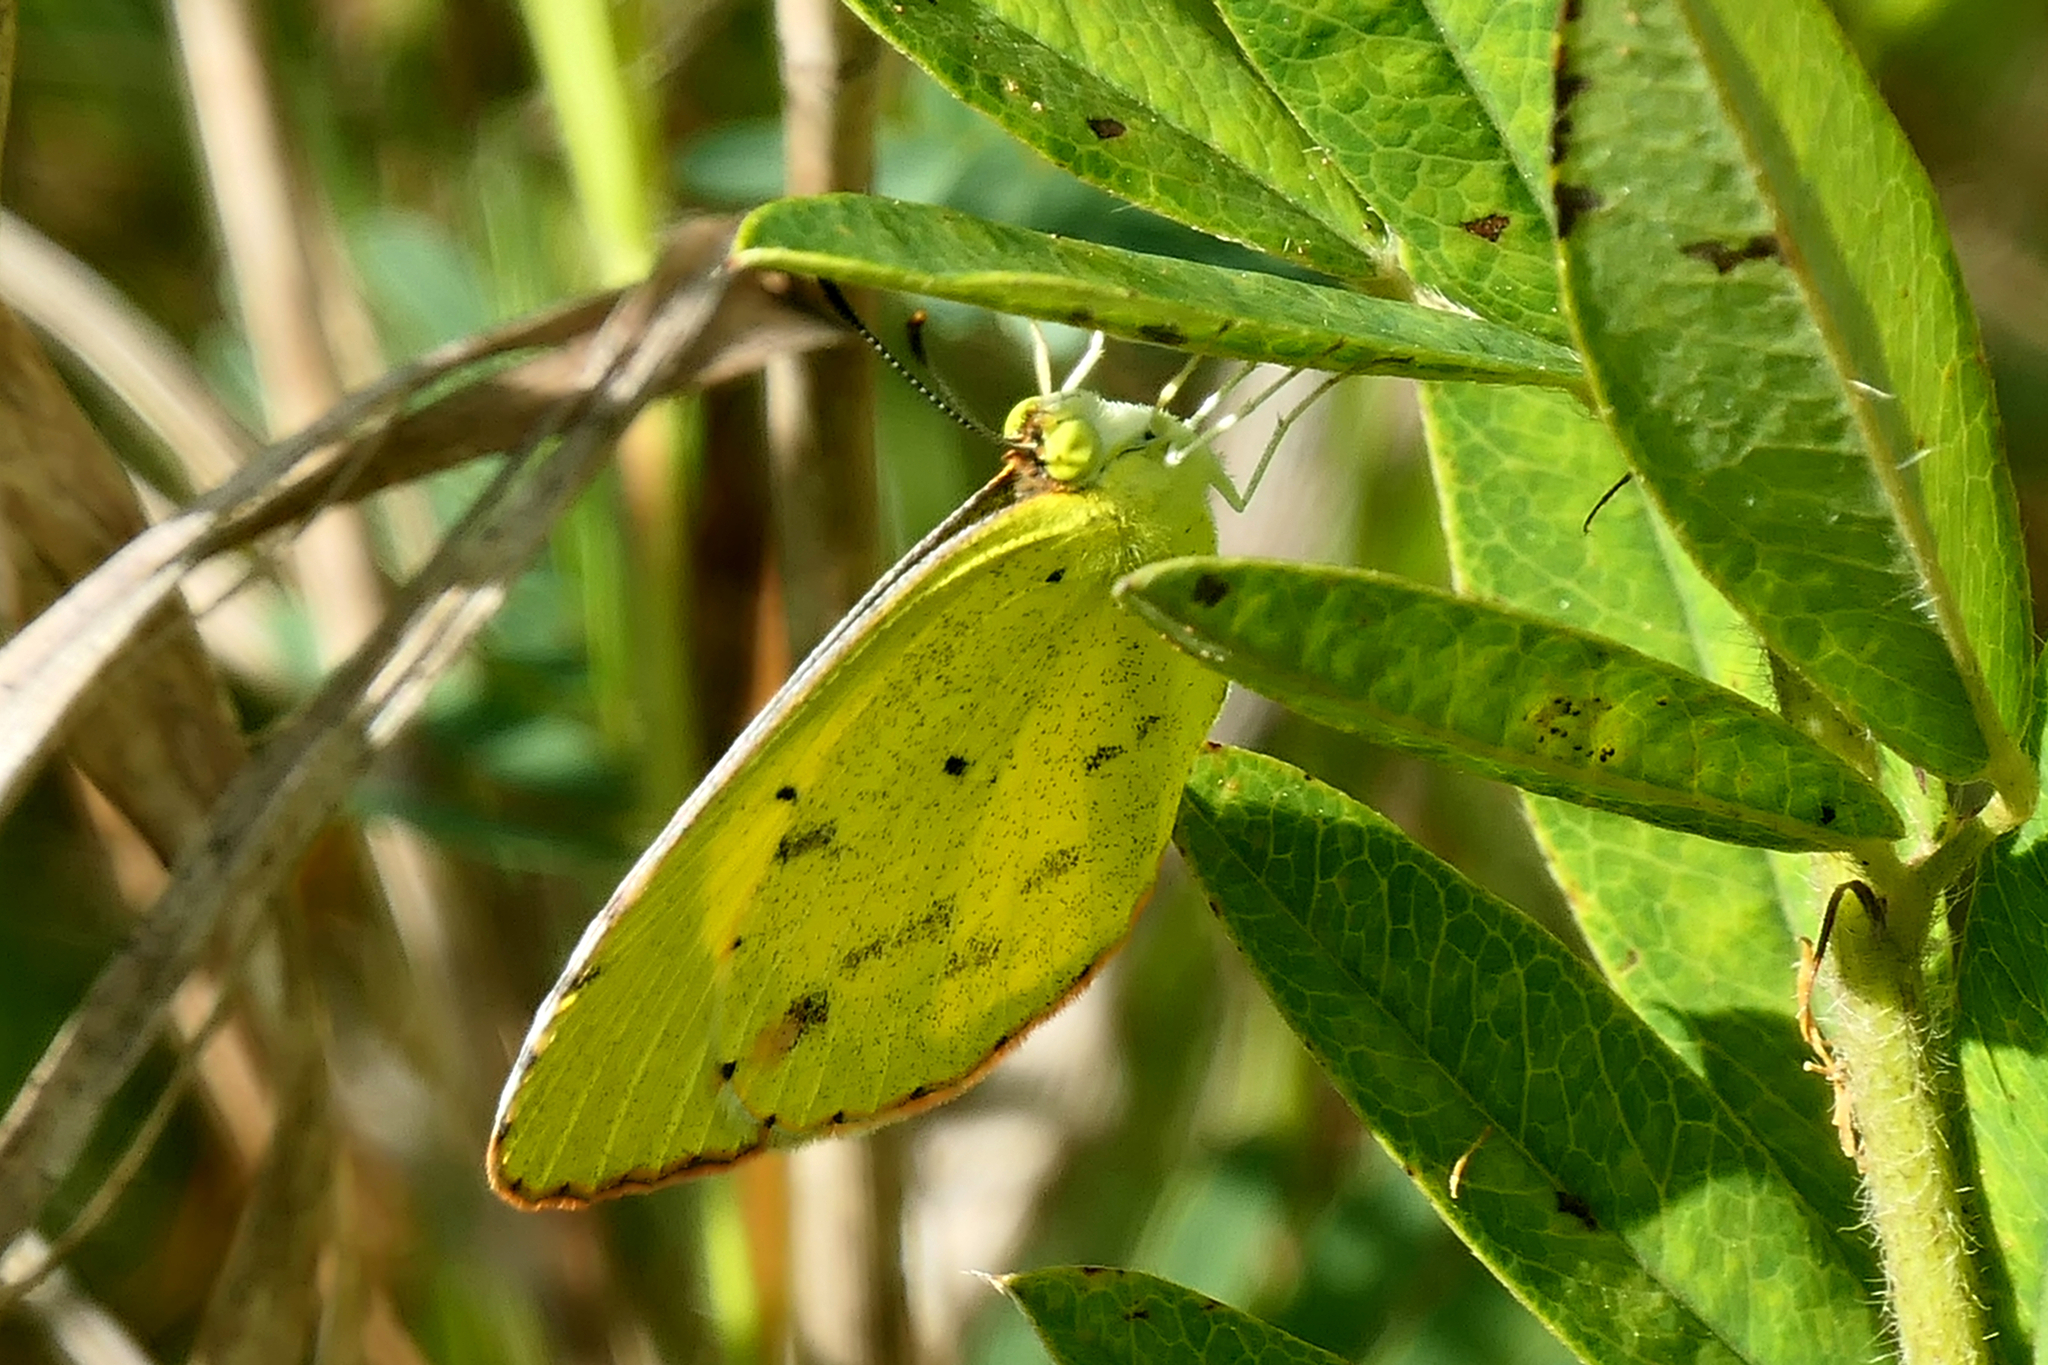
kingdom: Animalia
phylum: Arthropoda
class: Insecta
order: Lepidoptera
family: Pieridae
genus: Pyrisitia
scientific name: Pyrisitia lisa
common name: Little yellow
